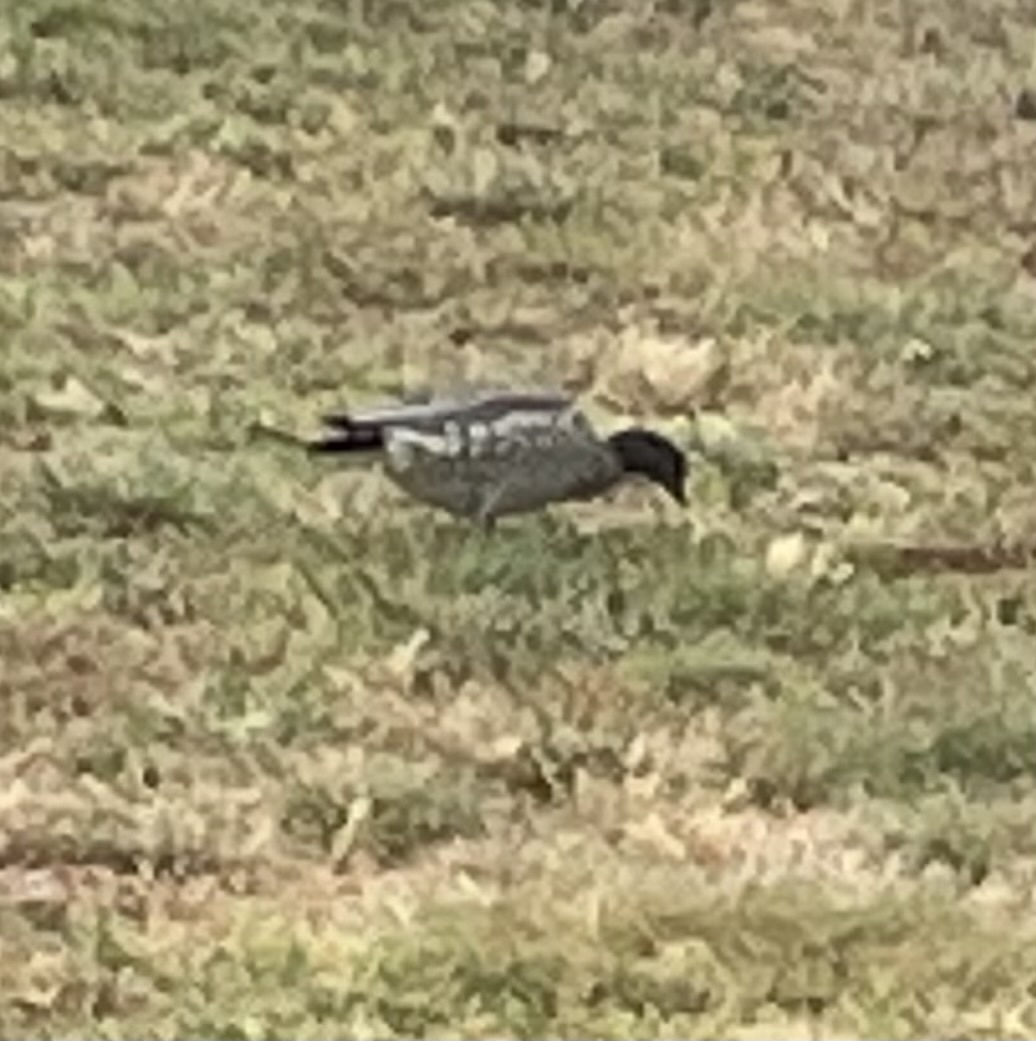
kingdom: Animalia
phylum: Chordata
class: Aves
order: Anseriformes
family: Anatidae
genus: Chenonetta
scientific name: Chenonetta jubata
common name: Maned duck
